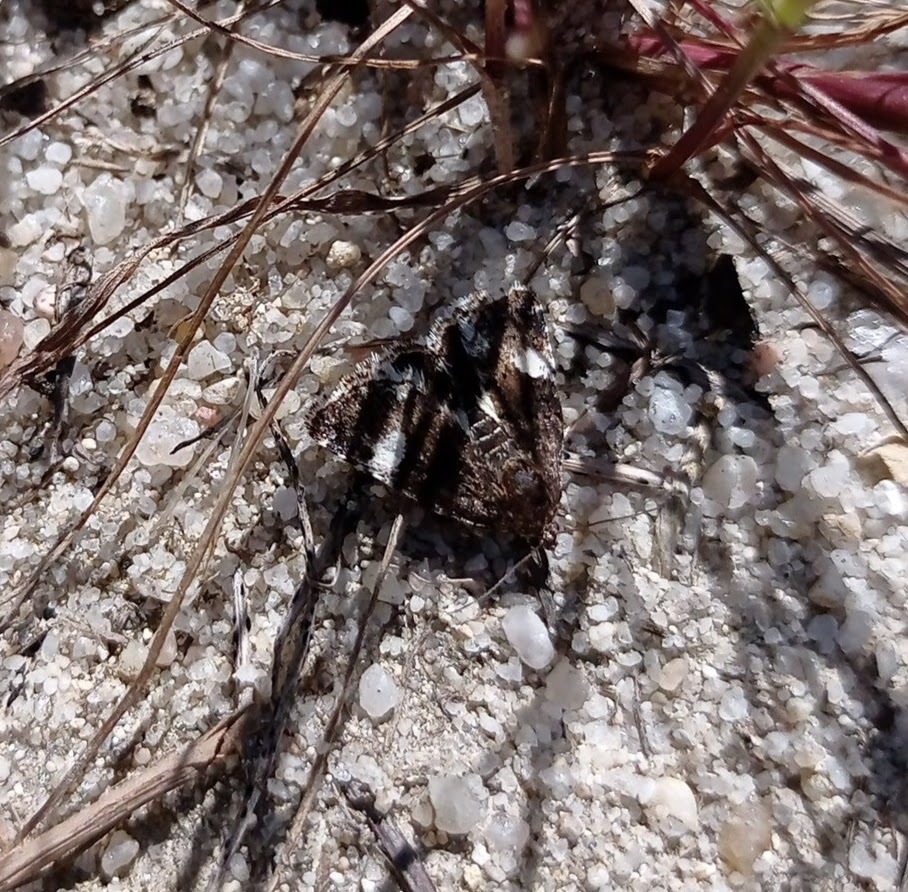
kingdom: Animalia
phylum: Arthropoda
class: Insecta
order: Lepidoptera
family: Erebidae
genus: Tyta
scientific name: Tyta luctuosa
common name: Four-spotted
